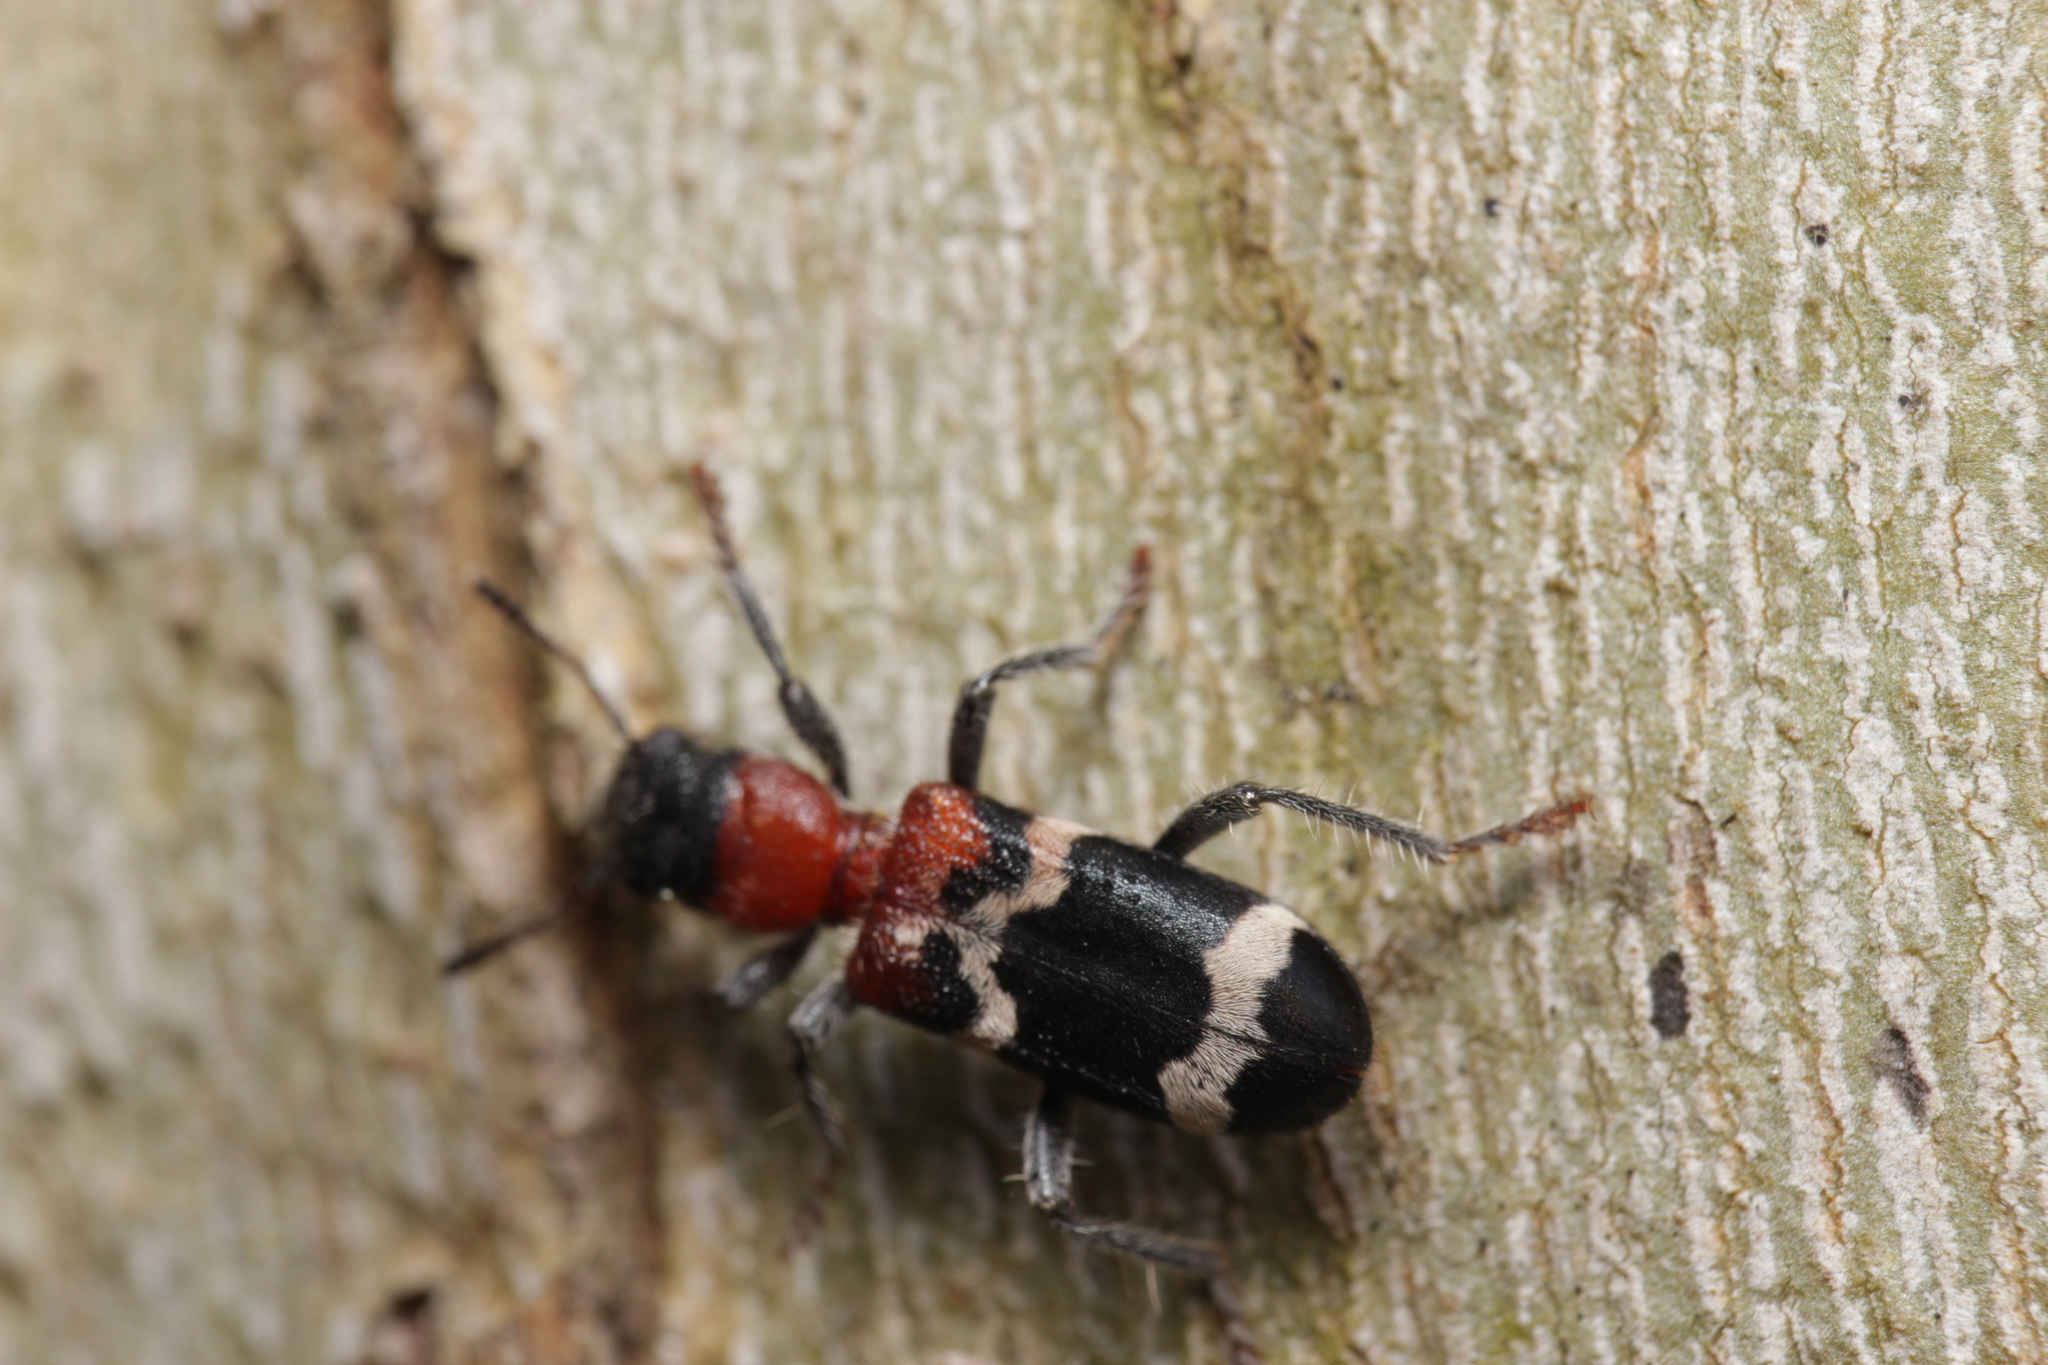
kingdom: Animalia
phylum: Arthropoda
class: Insecta
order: Coleoptera
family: Cleridae
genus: Thanasimus
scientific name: Thanasimus formicarius
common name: Ant beetle
